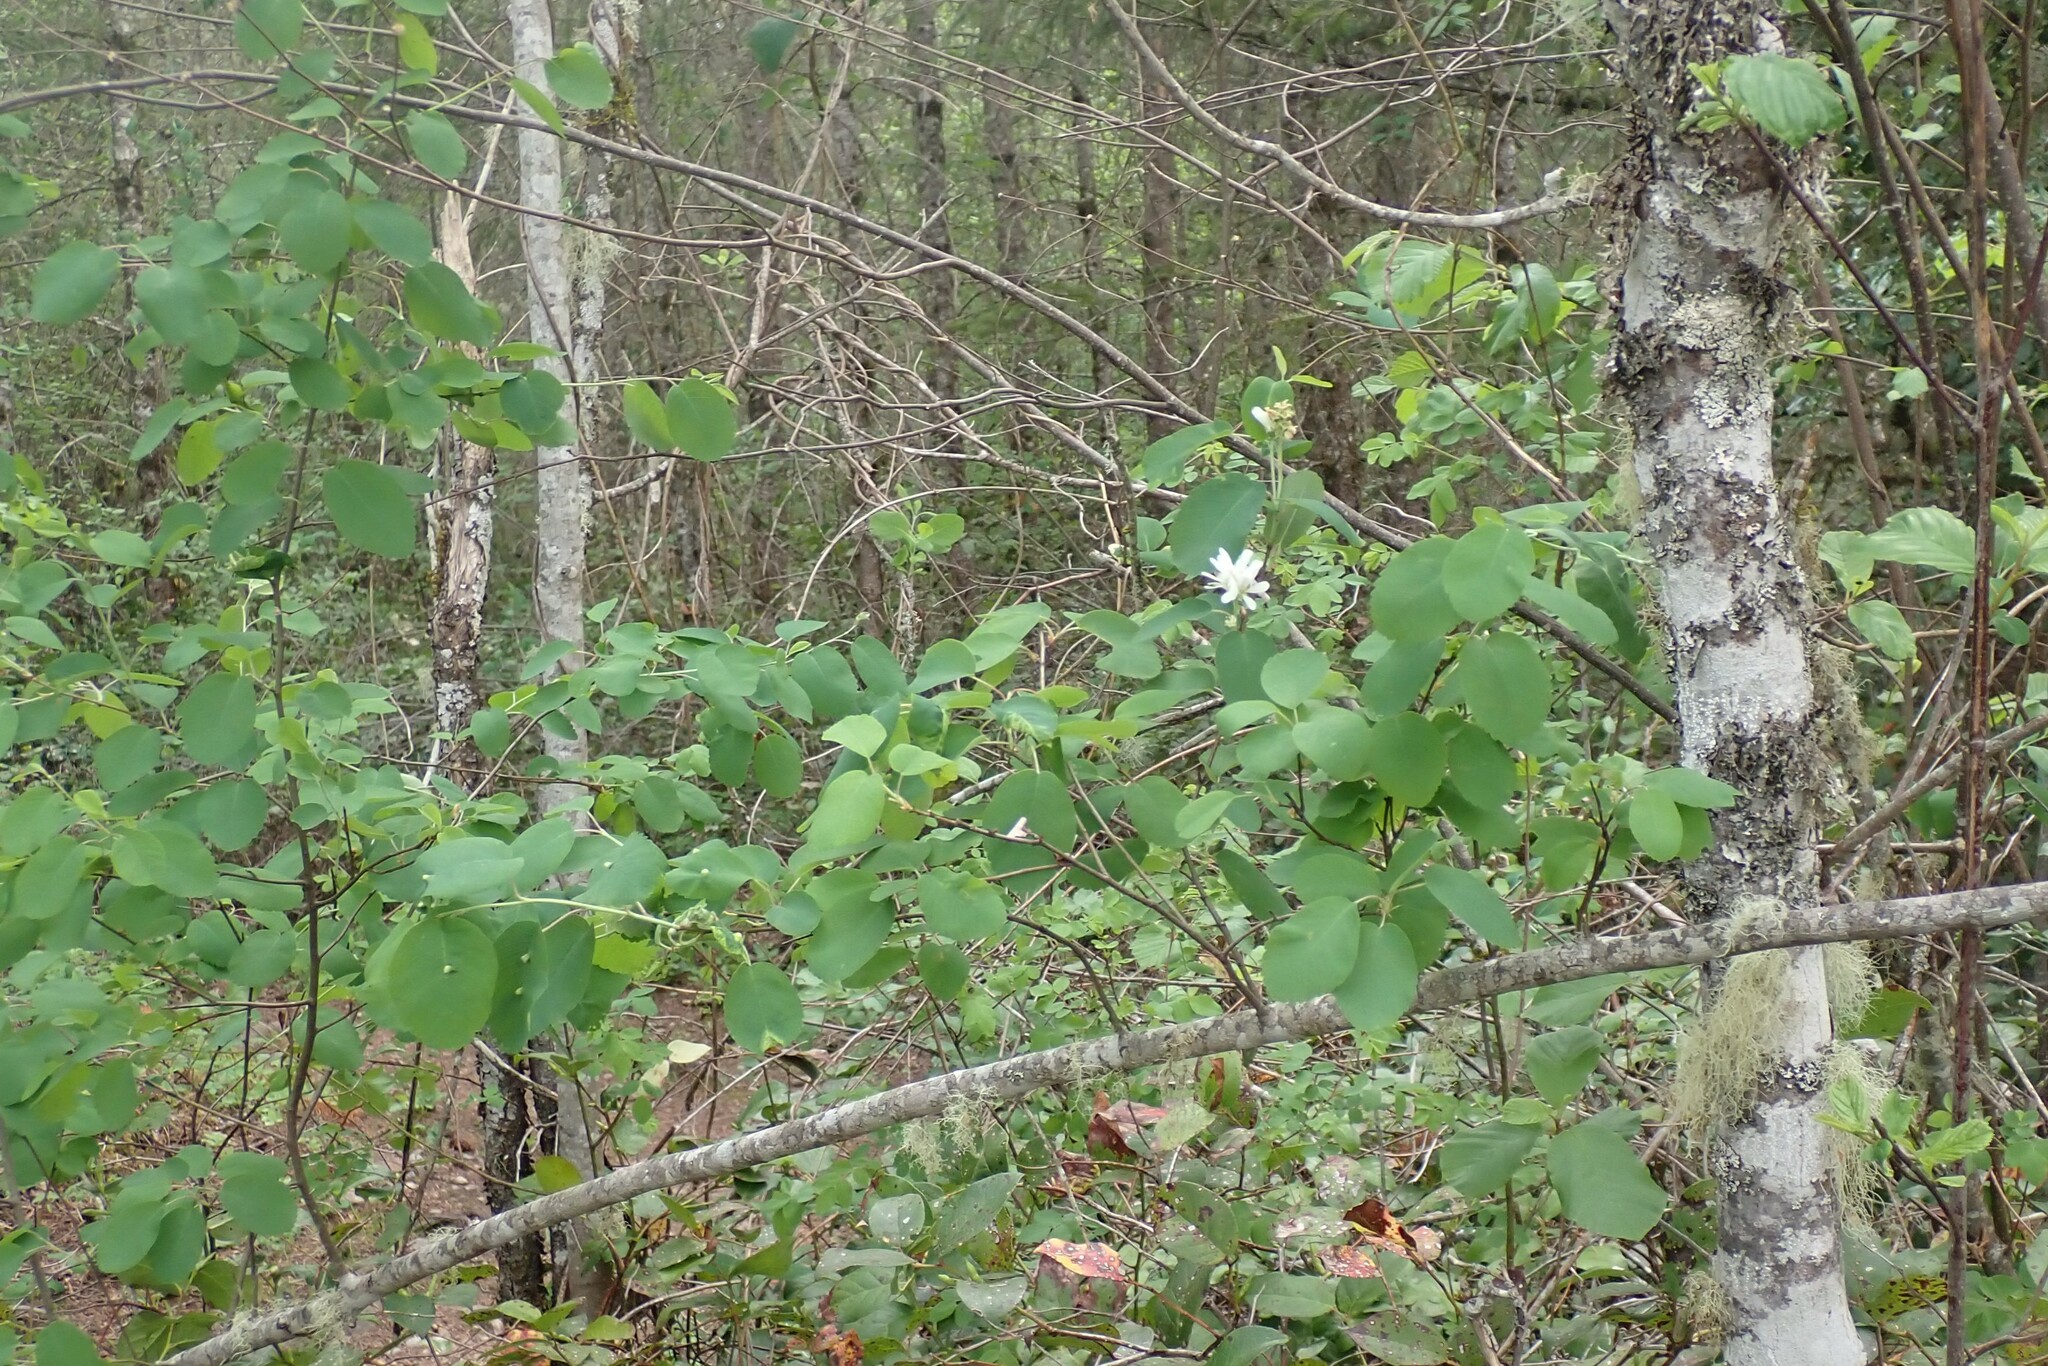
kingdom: Plantae
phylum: Tracheophyta
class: Magnoliopsida
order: Rosales
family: Rosaceae
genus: Amelanchier
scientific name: Amelanchier alnifolia
